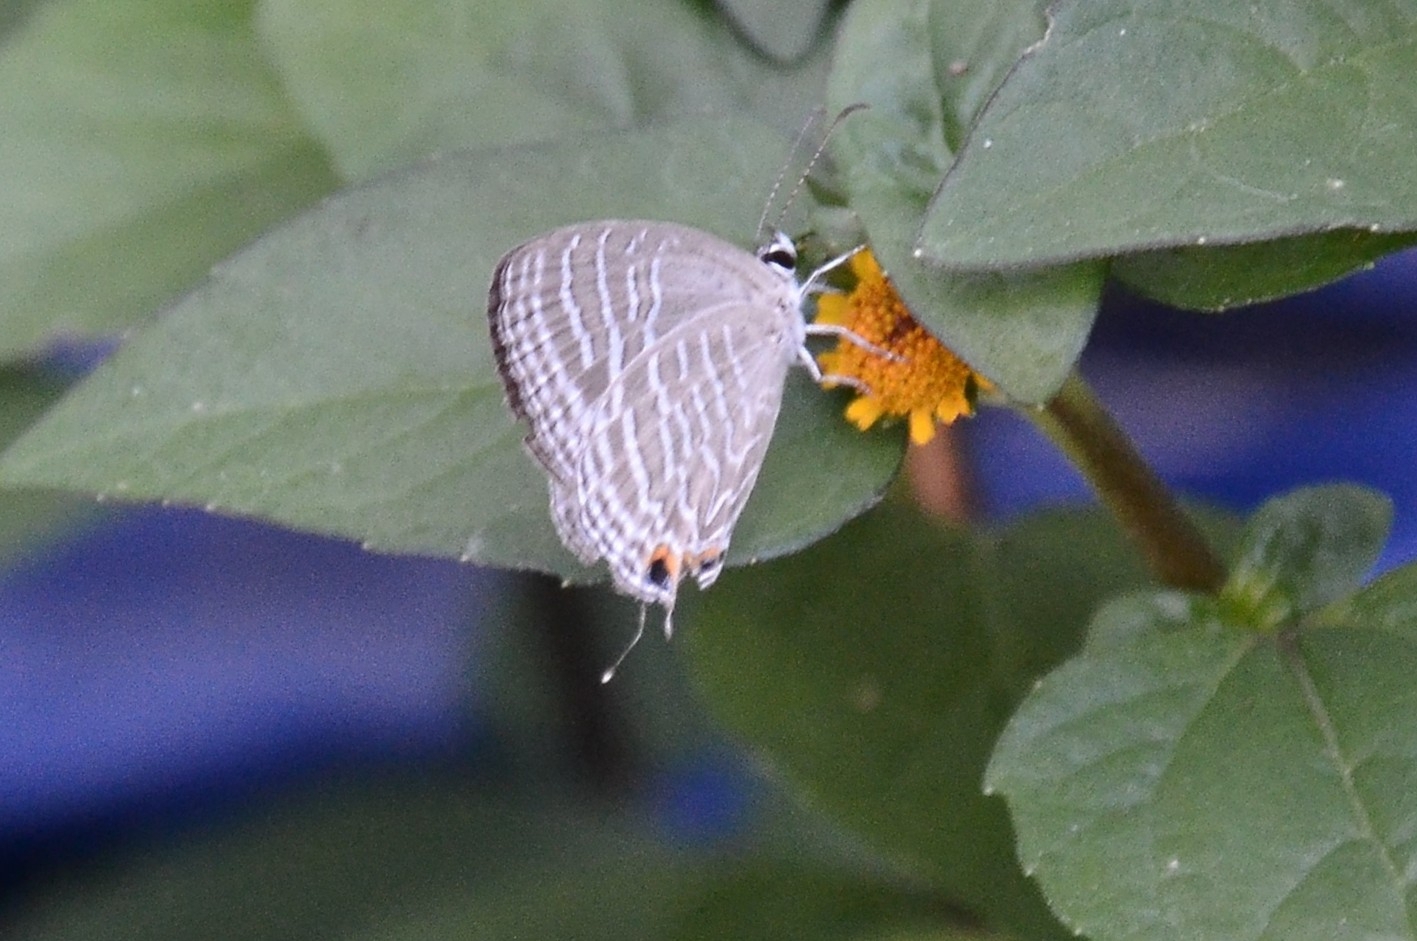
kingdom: Animalia
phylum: Arthropoda
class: Insecta
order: Lepidoptera
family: Lycaenidae
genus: Jamides
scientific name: Jamides celeno
